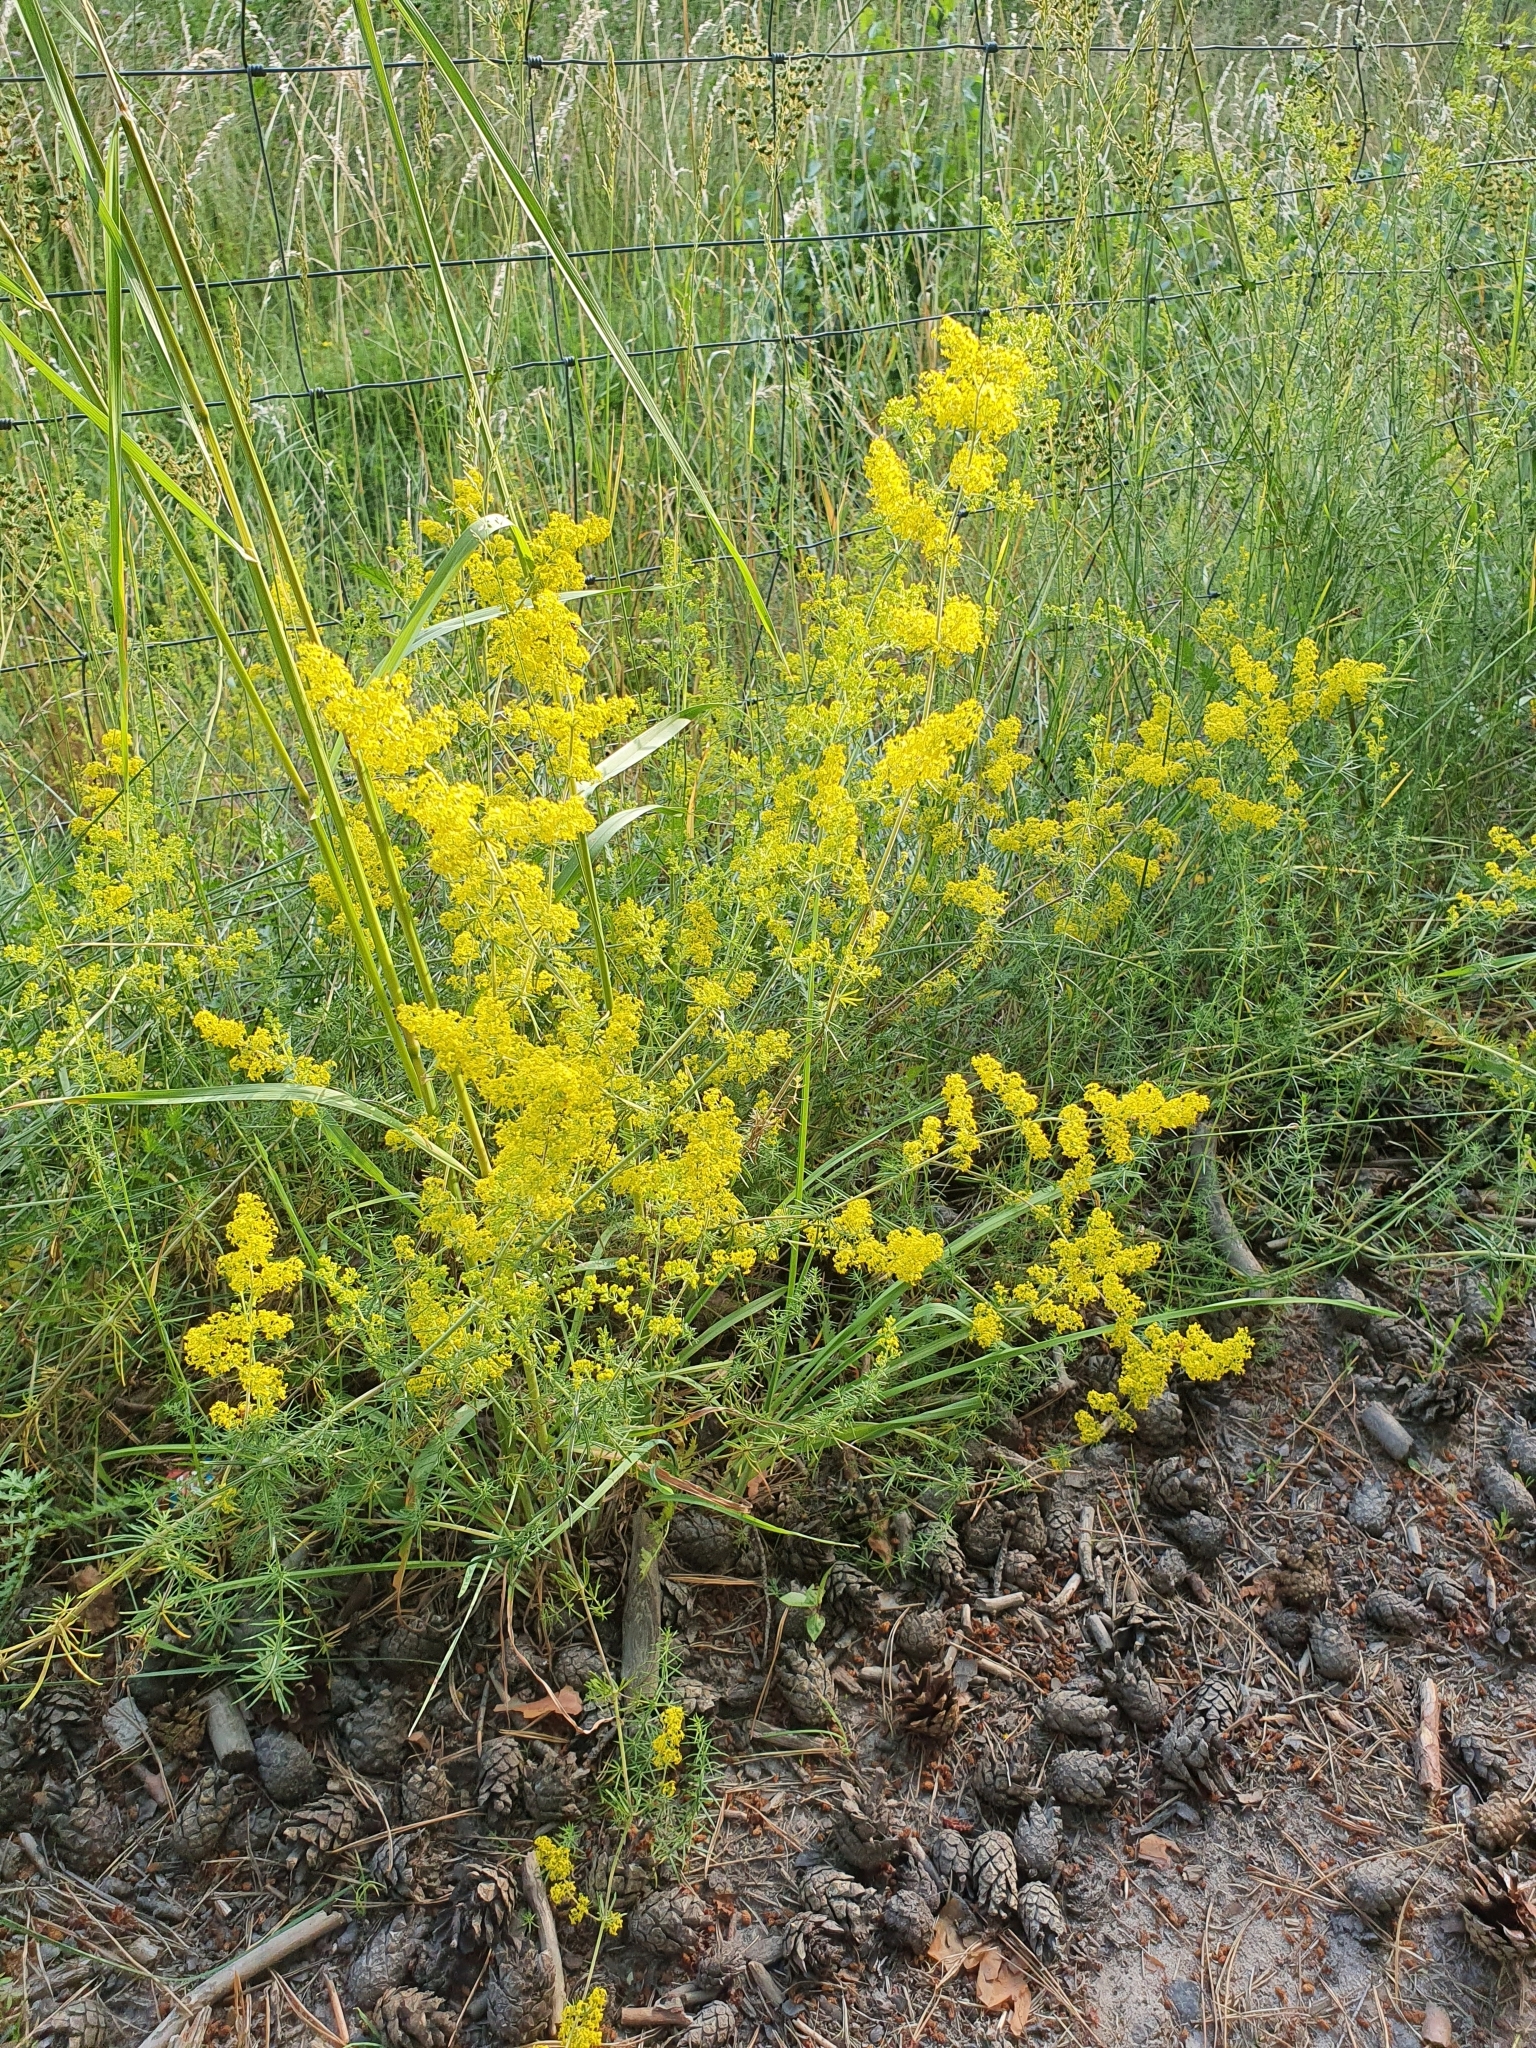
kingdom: Plantae
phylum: Tracheophyta
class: Magnoliopsida
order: Gentianales
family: Rubiaceae
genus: Galium
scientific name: Galium verum
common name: Lady's bedstraw
